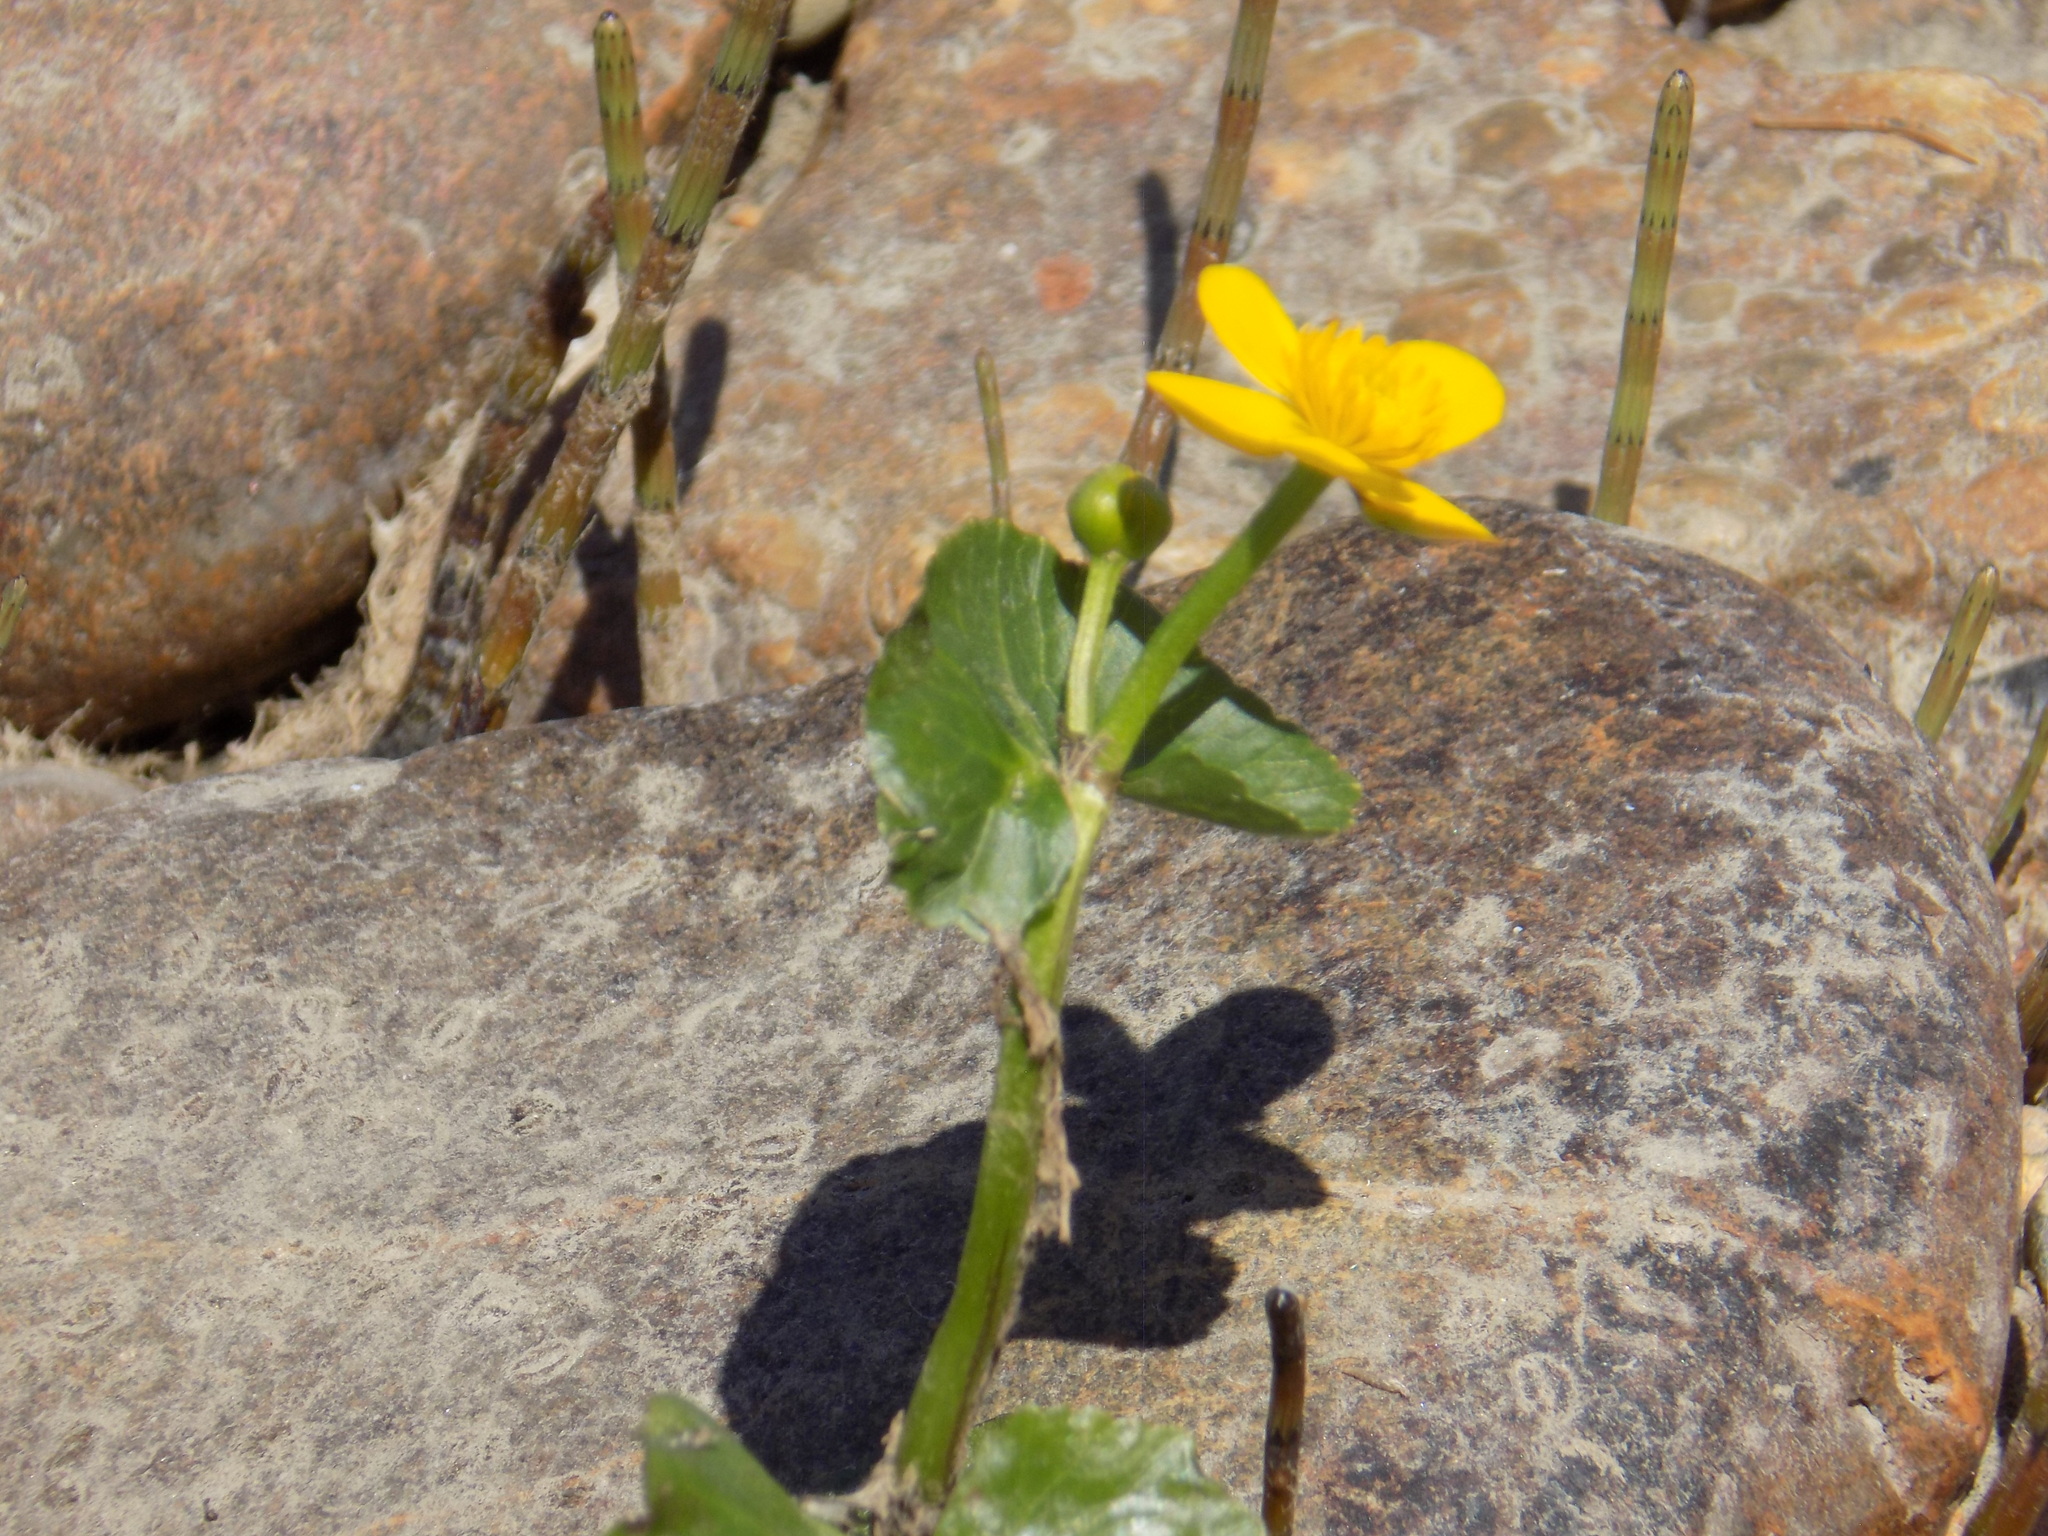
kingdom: Plantae
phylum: Tracheophyta
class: Magnoliopsida
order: Ranunculales
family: Ranunculaceae
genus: Caltha
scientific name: Caltha palustris
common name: Marsh marigold
